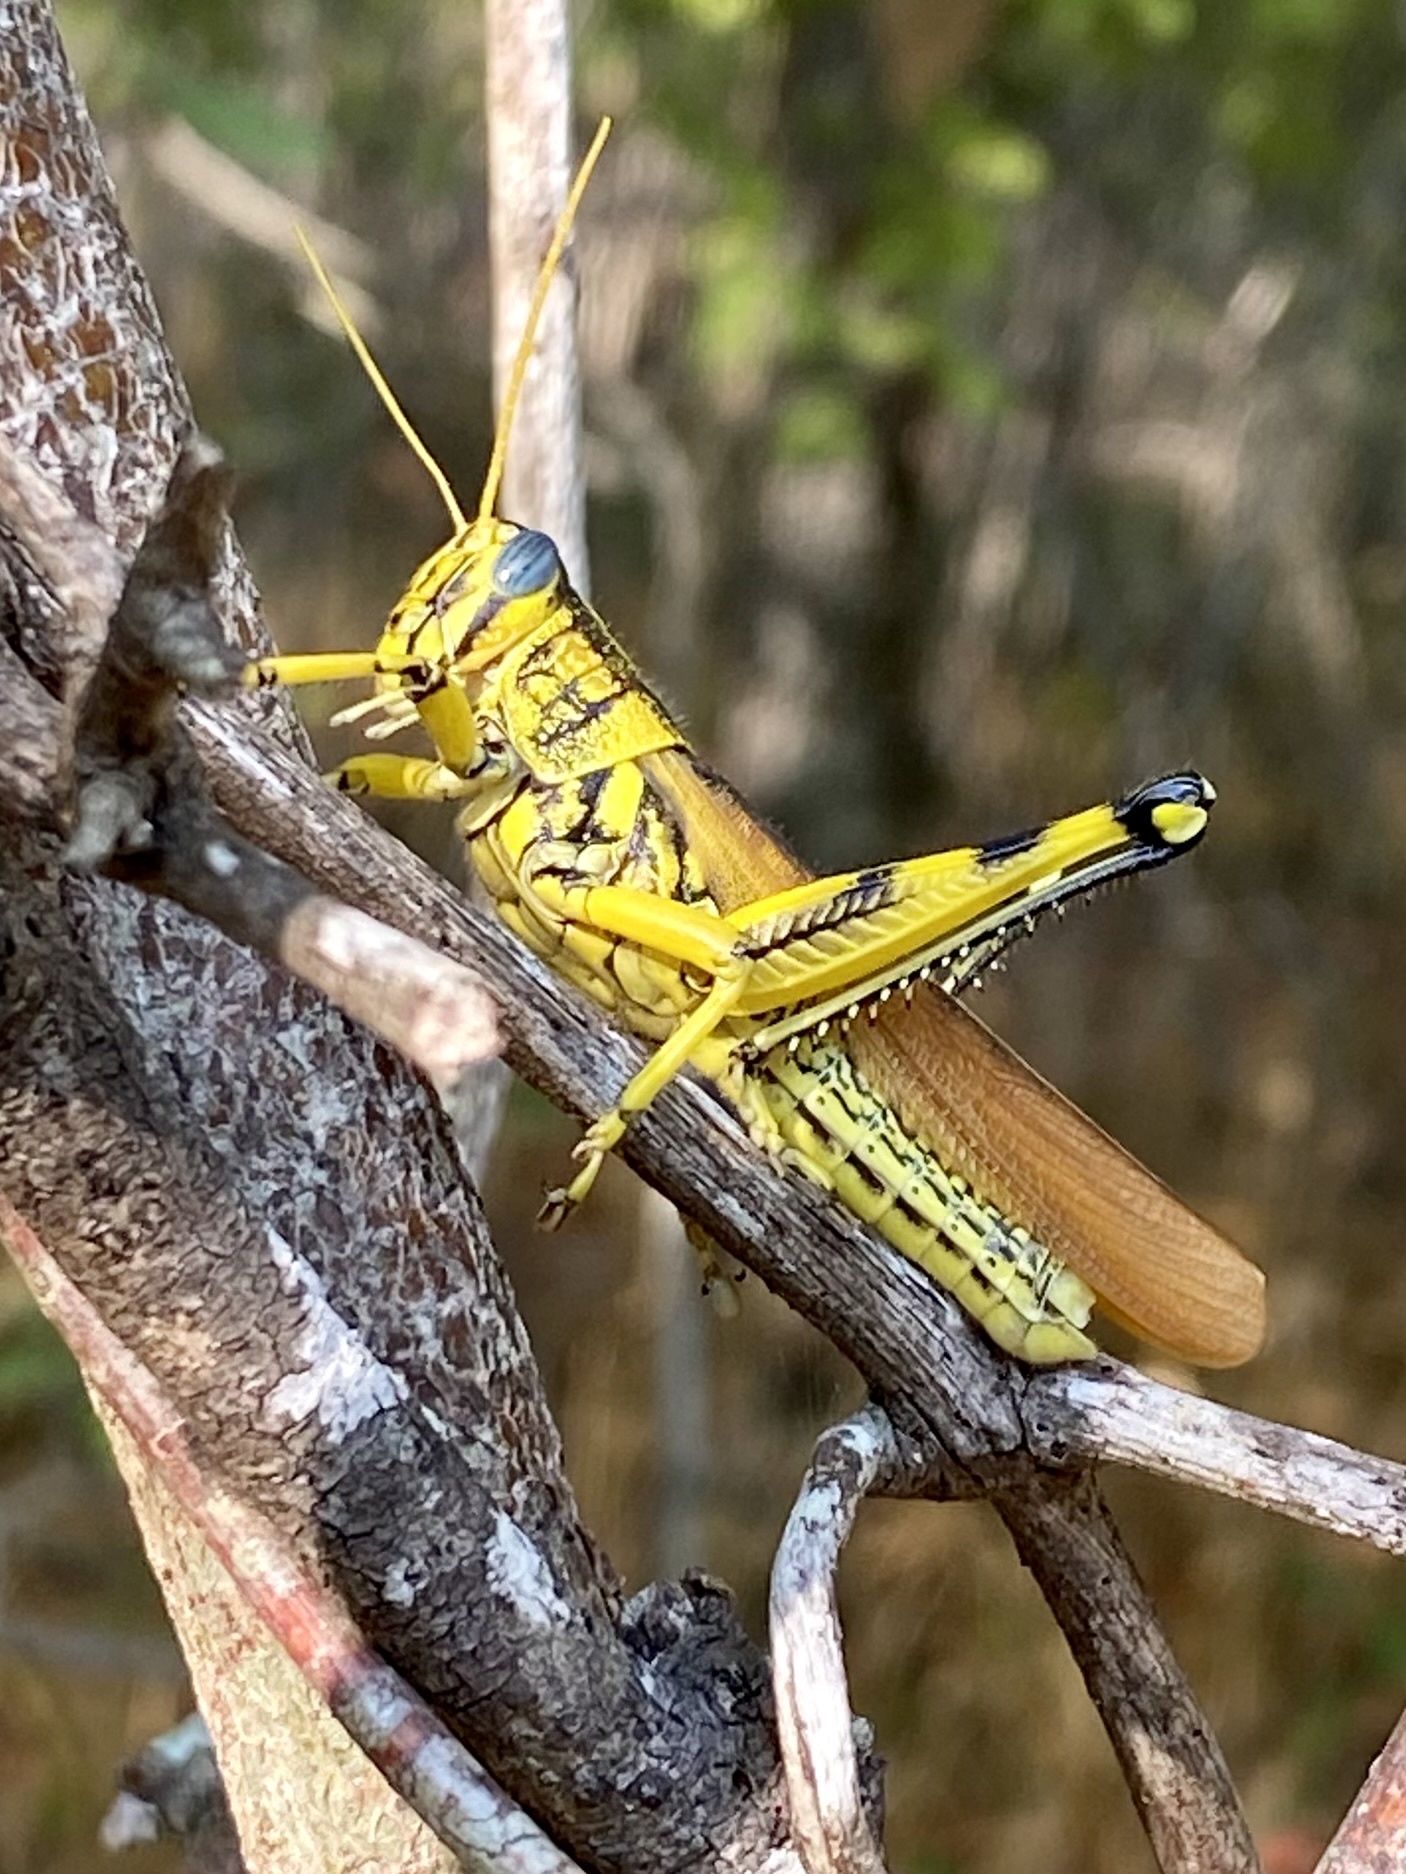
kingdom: Animalia
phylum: Arthropoda
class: Insecta
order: Orthoptera
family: Acrididae
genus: Schistocerca
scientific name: Schistocerca lineata
